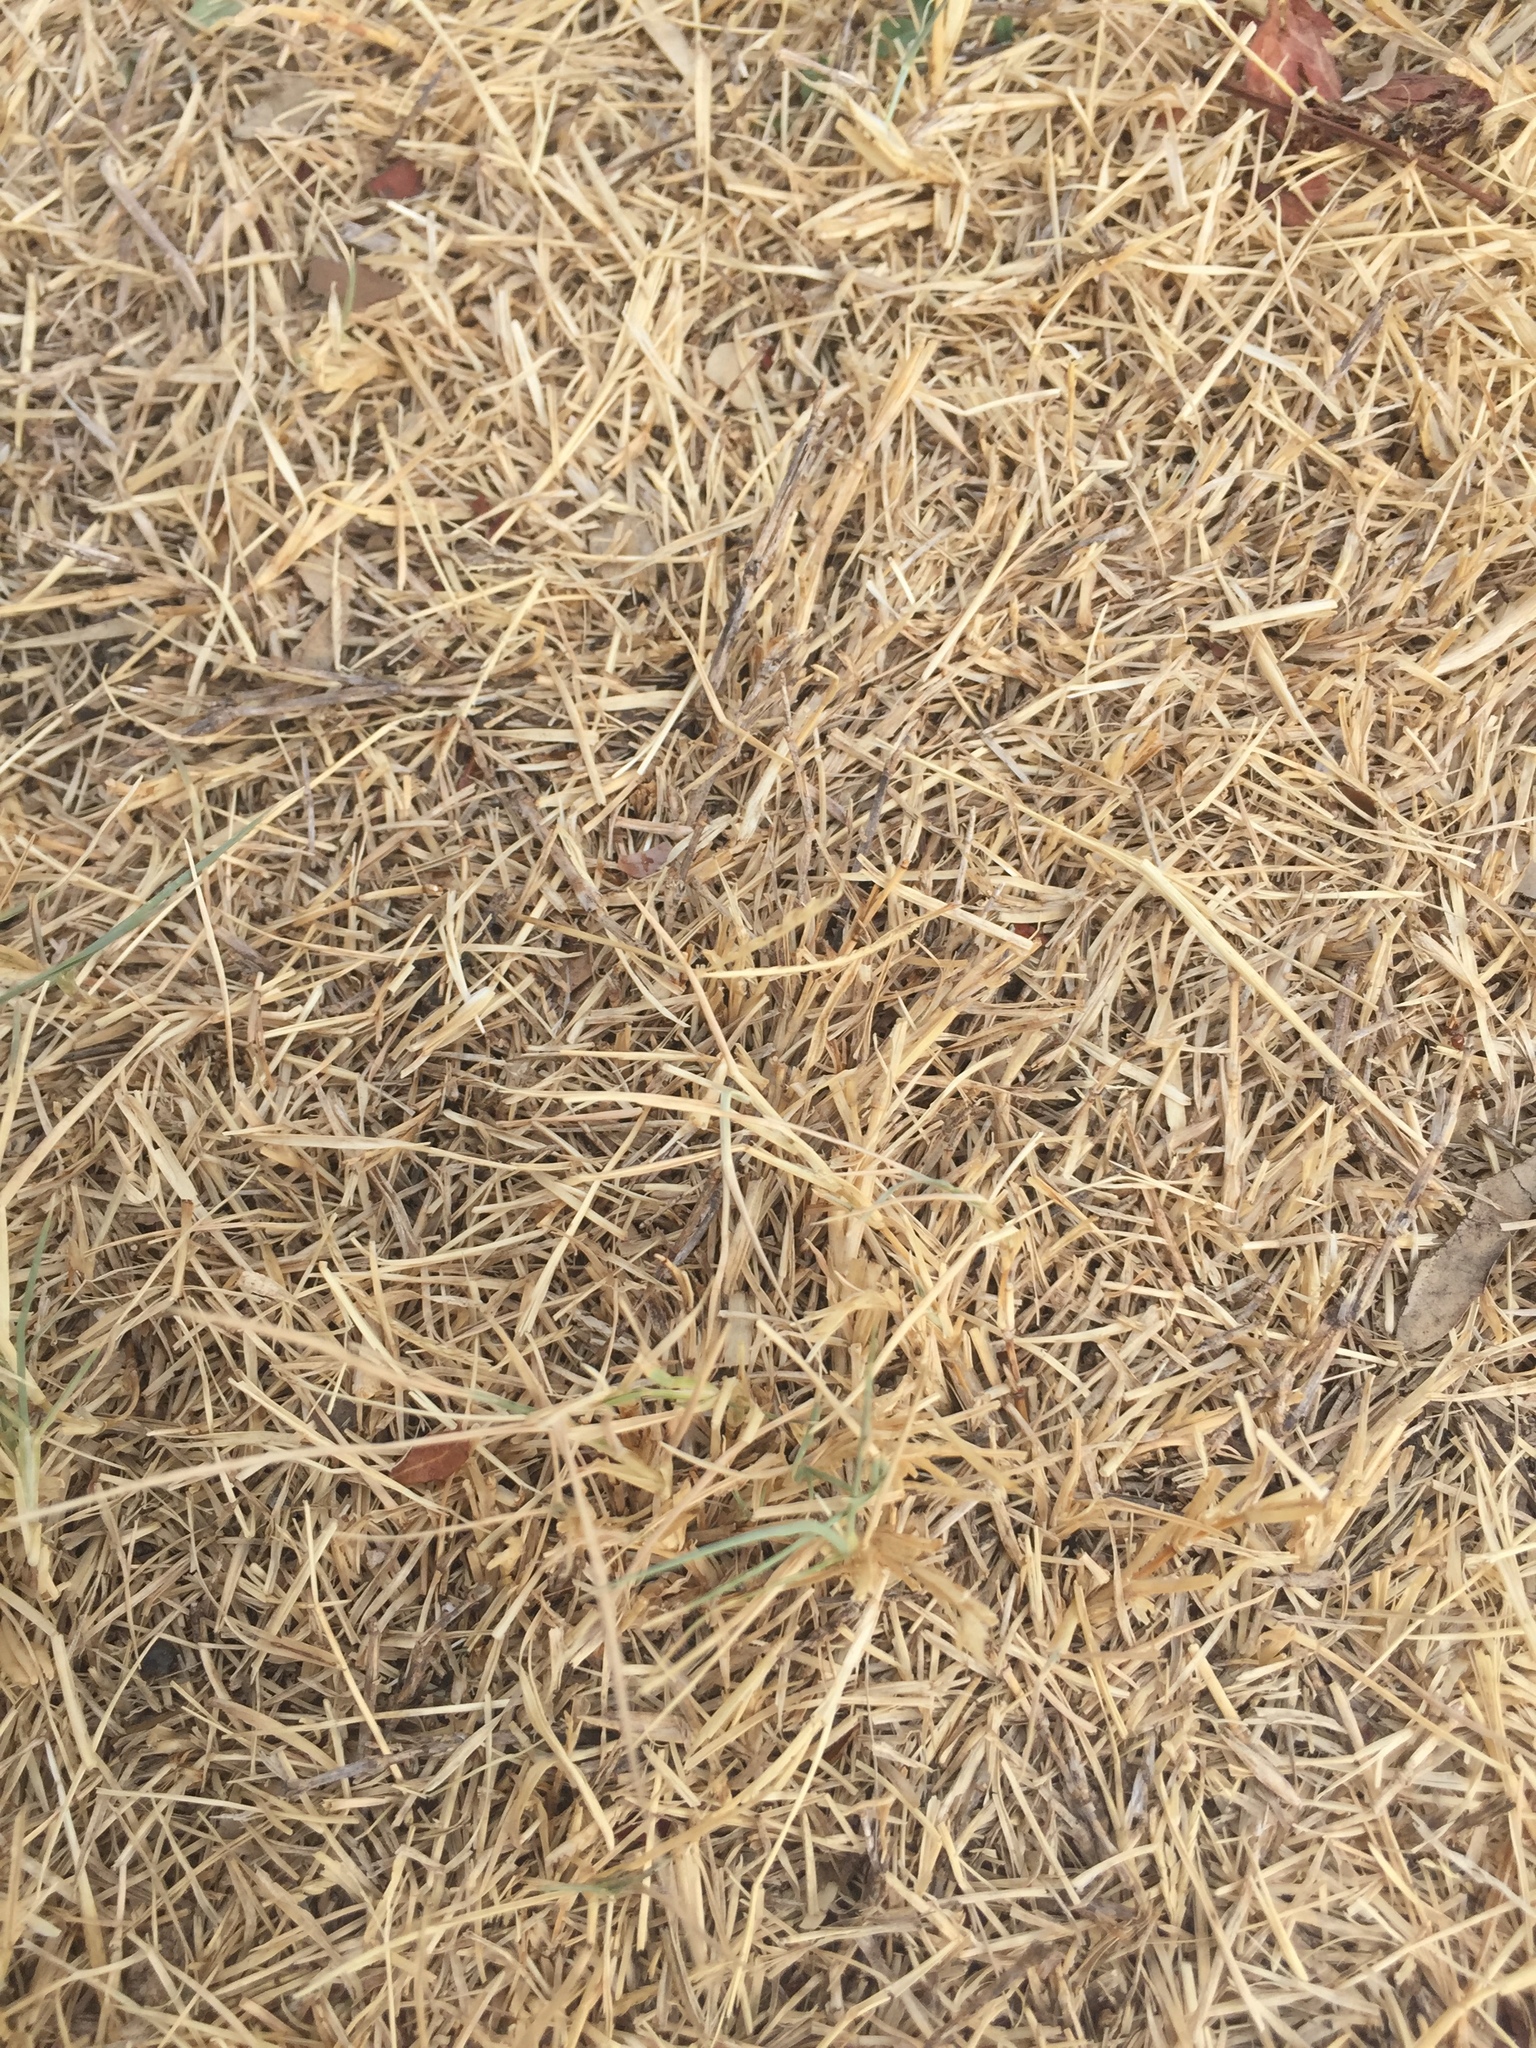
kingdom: Plantae
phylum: Tracheophyta
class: Liliopsida
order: Poales
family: Poaceae
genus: Cynodon
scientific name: Cynodon dactylon
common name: Bermuda grass
